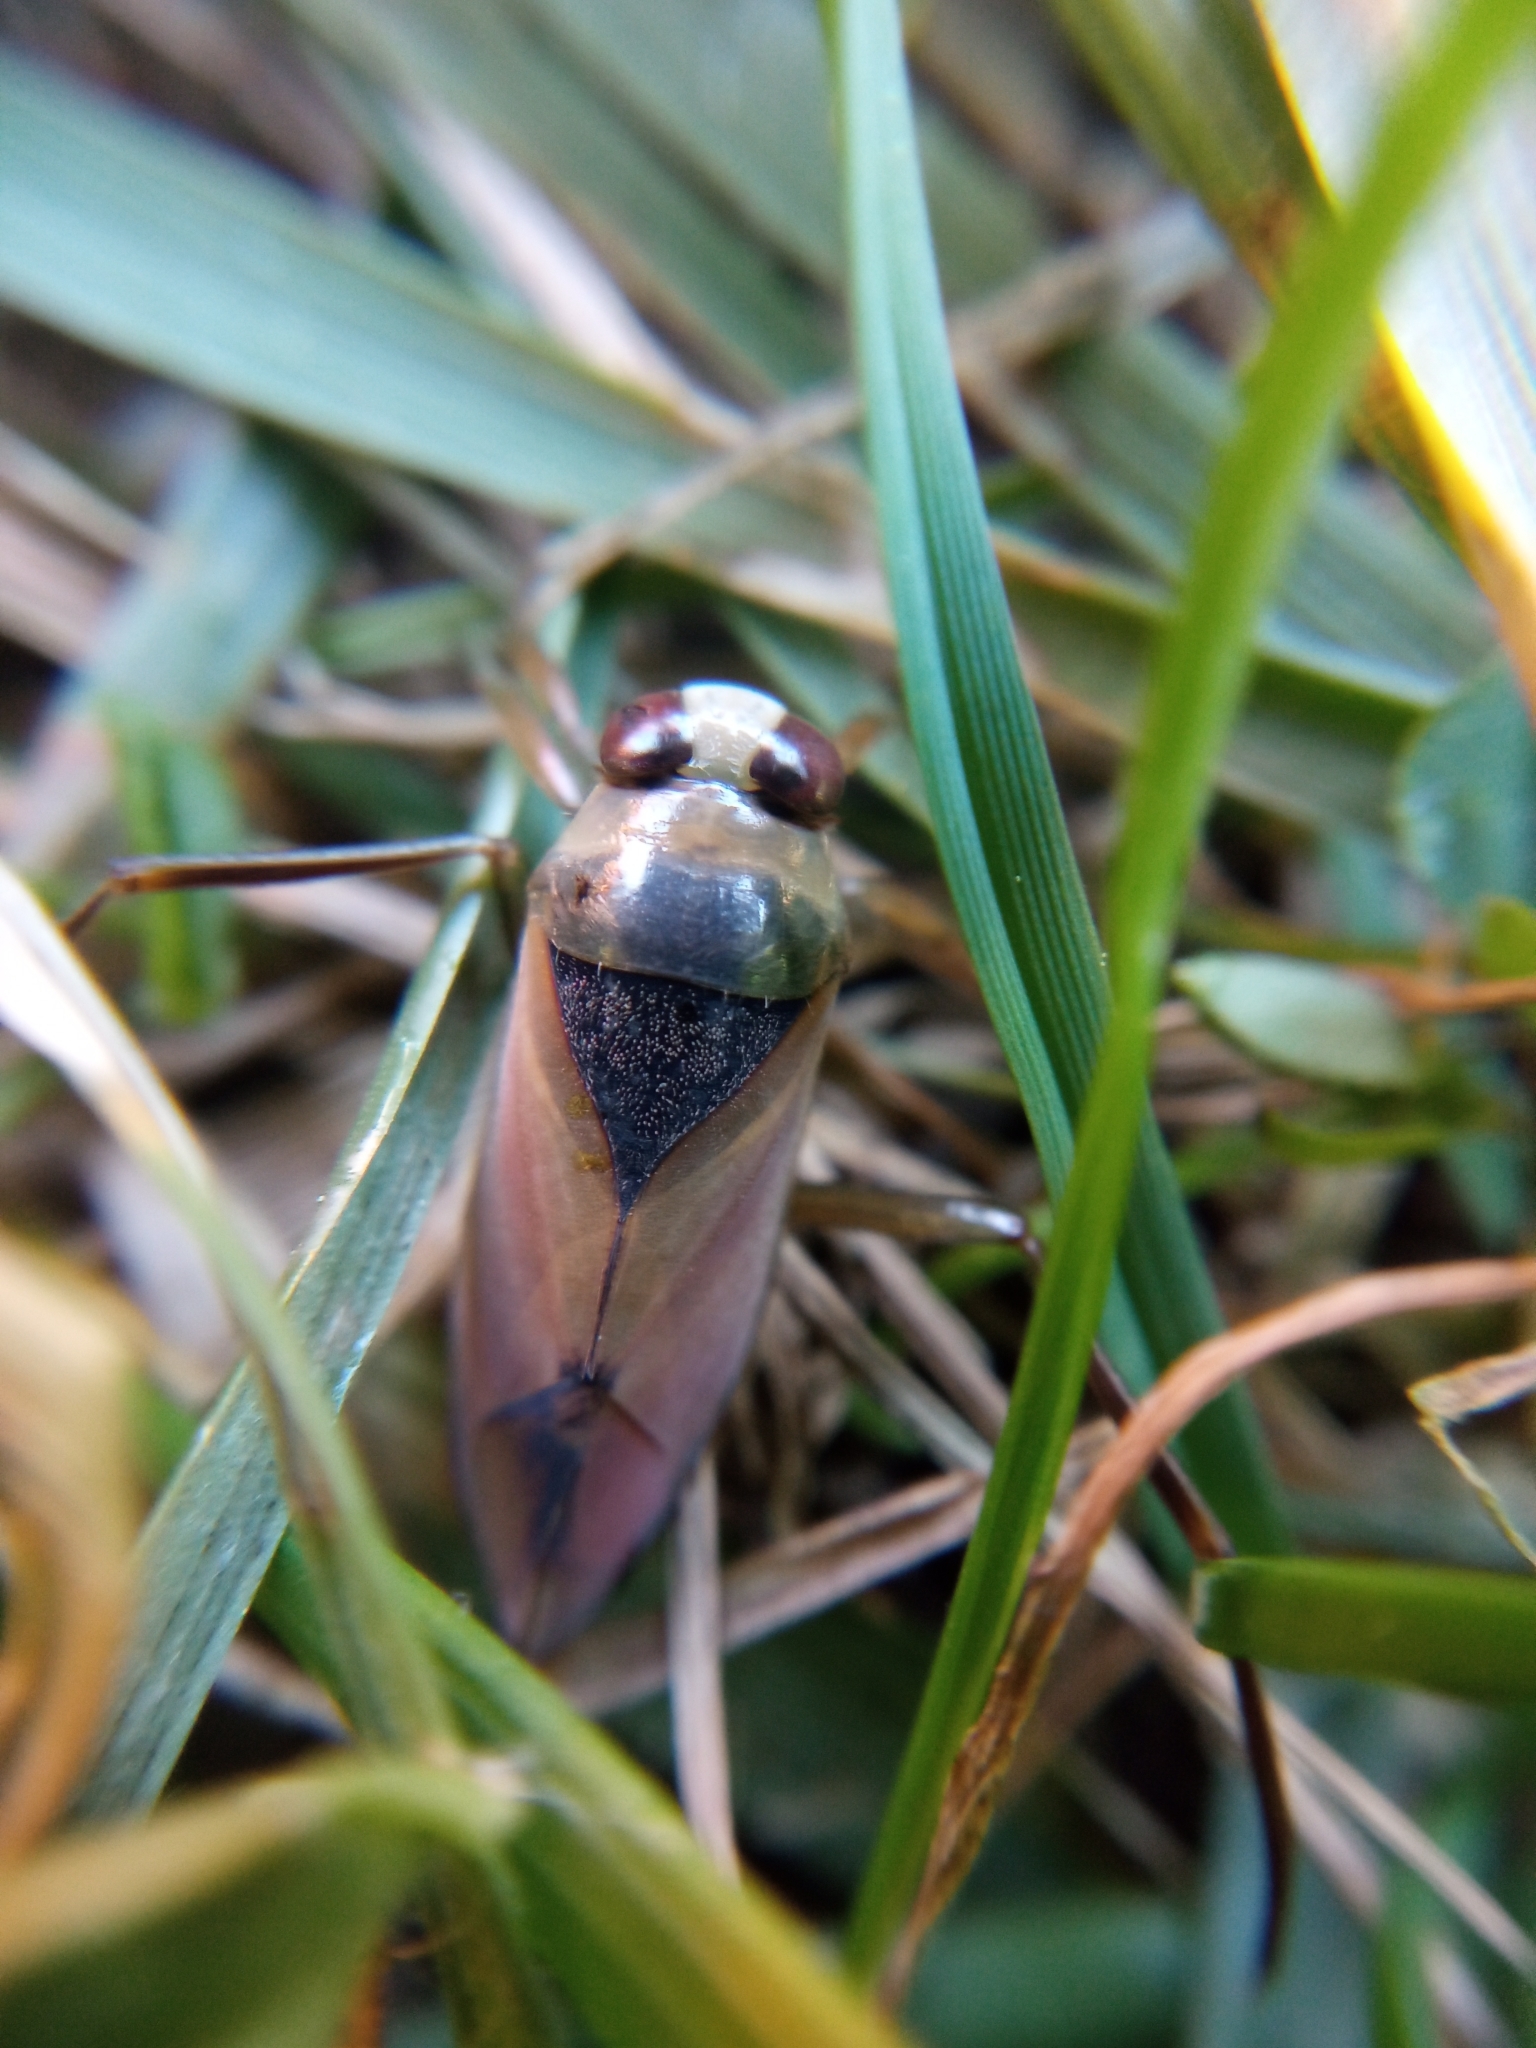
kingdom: Animalia
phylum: Arthropoda
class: Insecta
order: Hemiptera
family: Notonectidae
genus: Notonecta
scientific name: Notonecta glauca
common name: Common water-boatman
